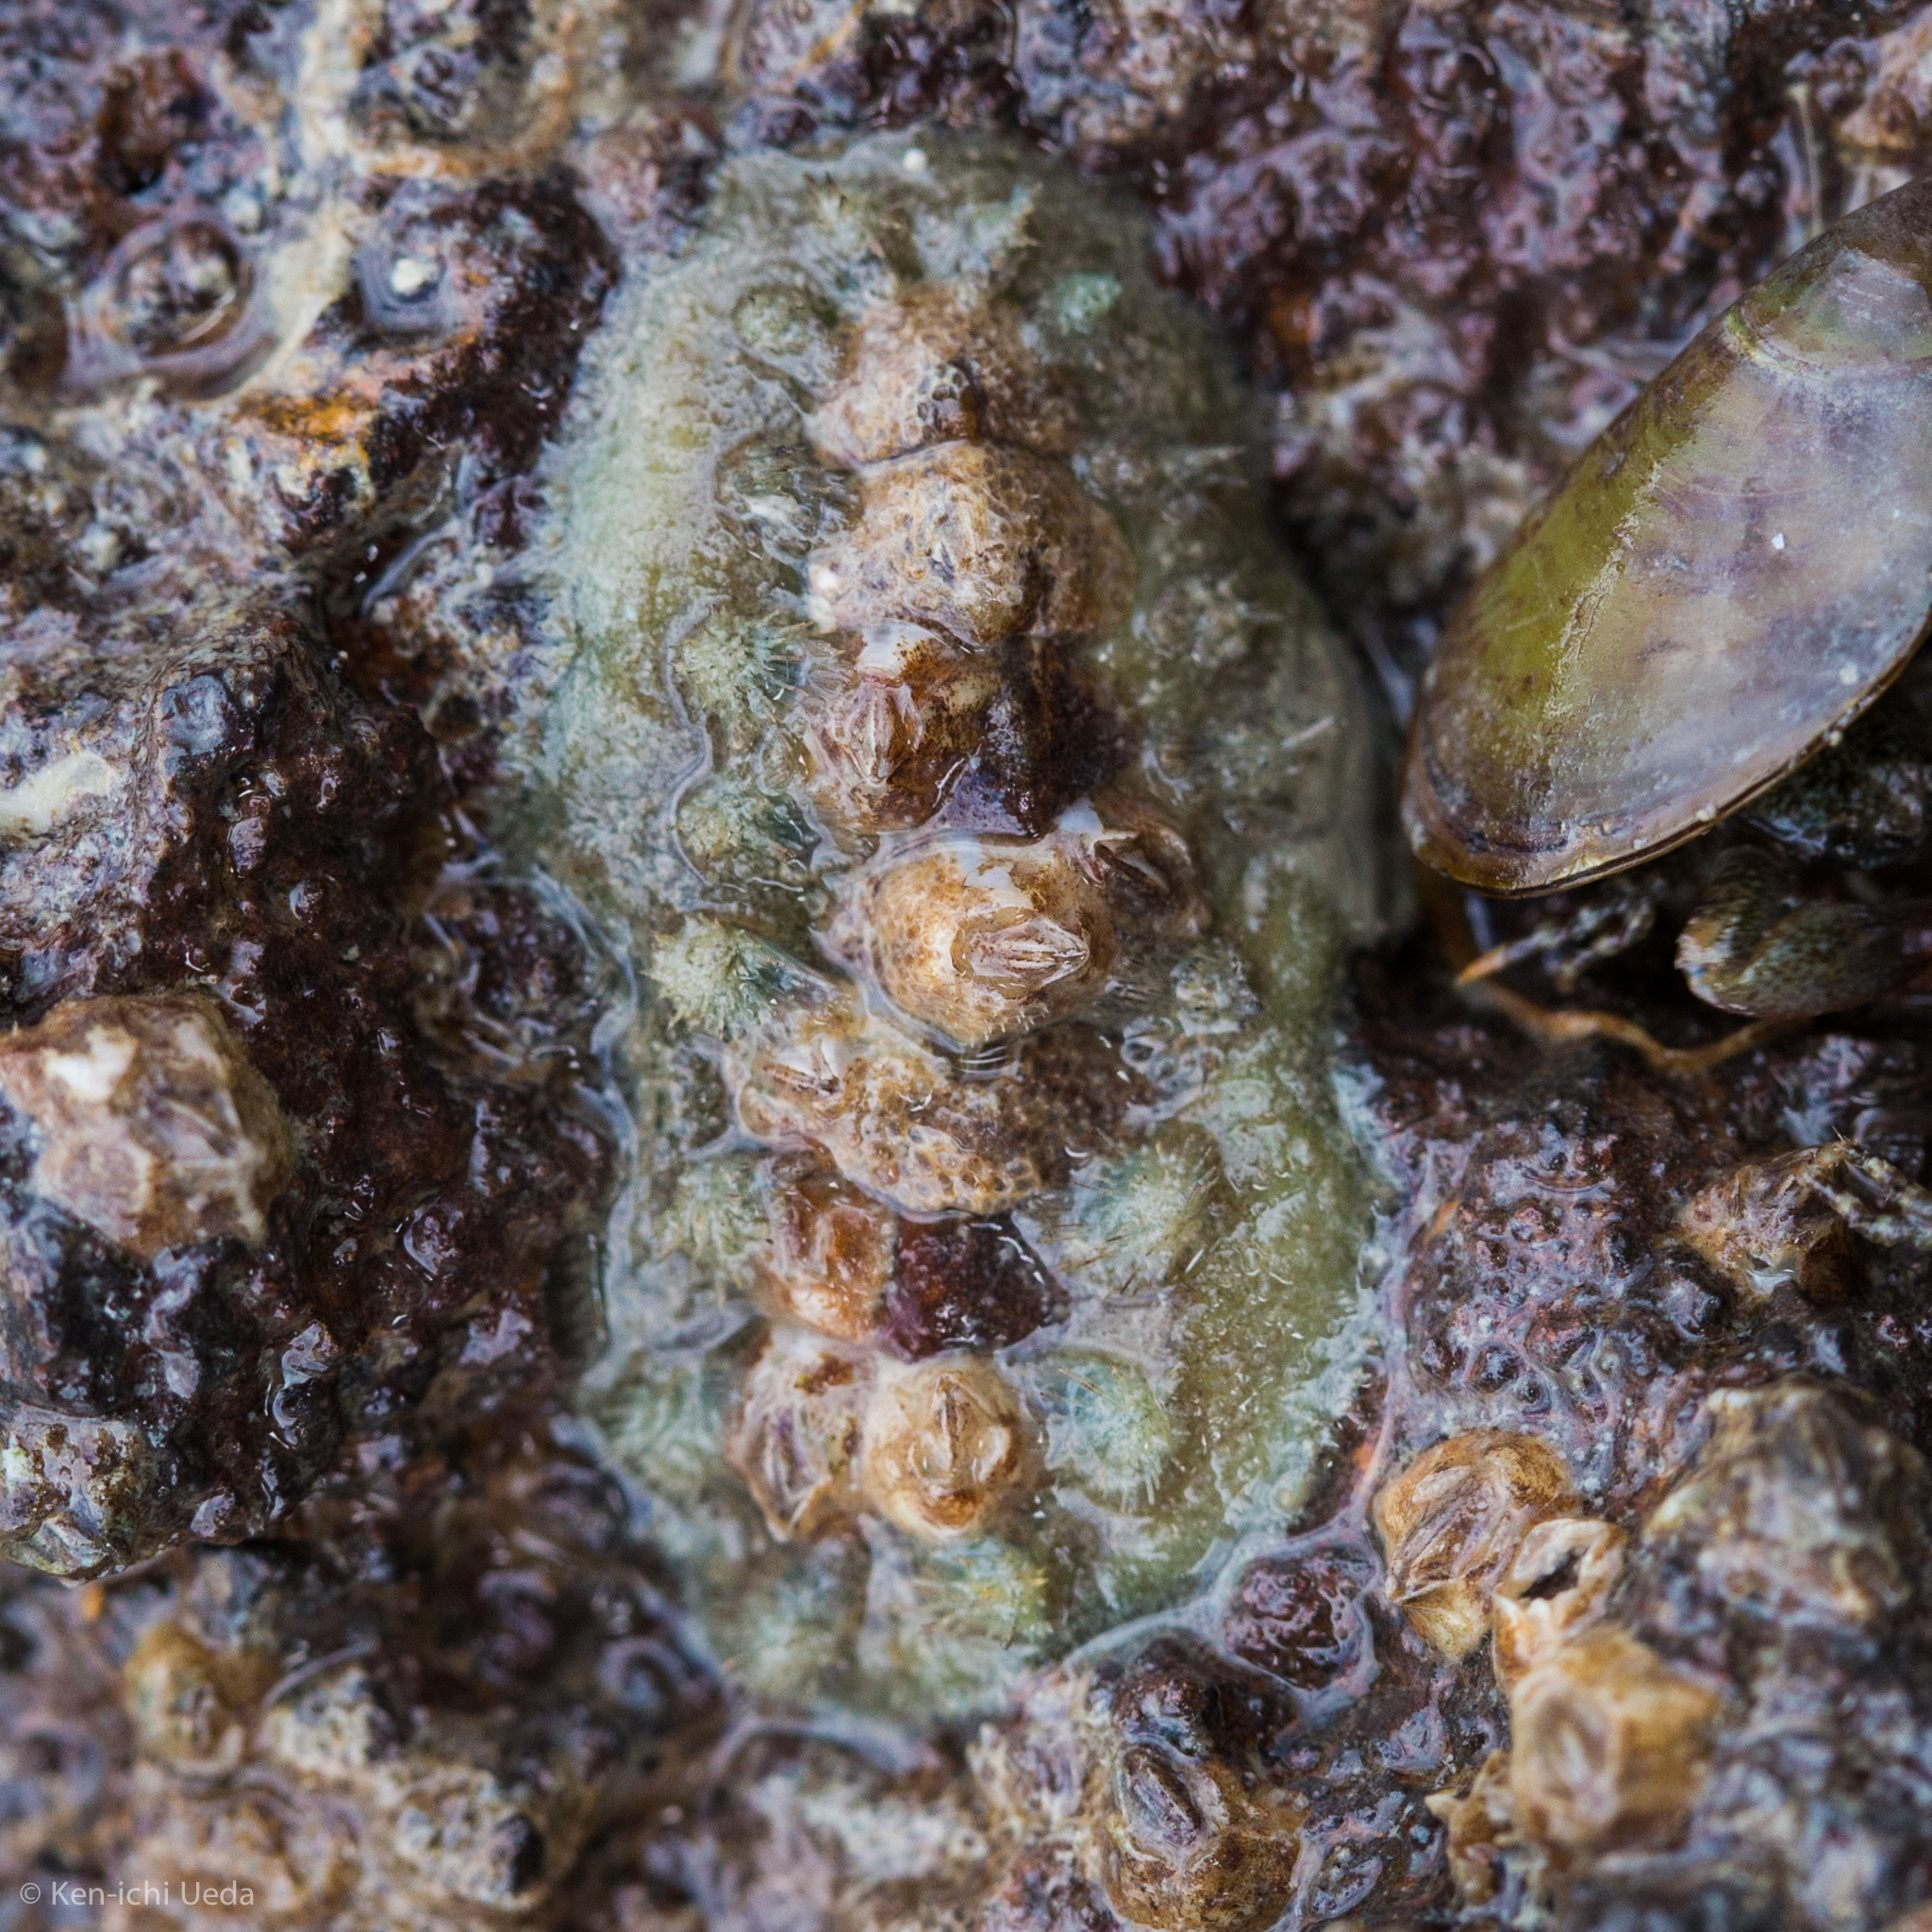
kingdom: Animalia
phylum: Mollusca
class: Polyplacophora
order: Chitonida
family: Acanthochitonidae
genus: Acanthochitona
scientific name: Acanthochitona zelandica
